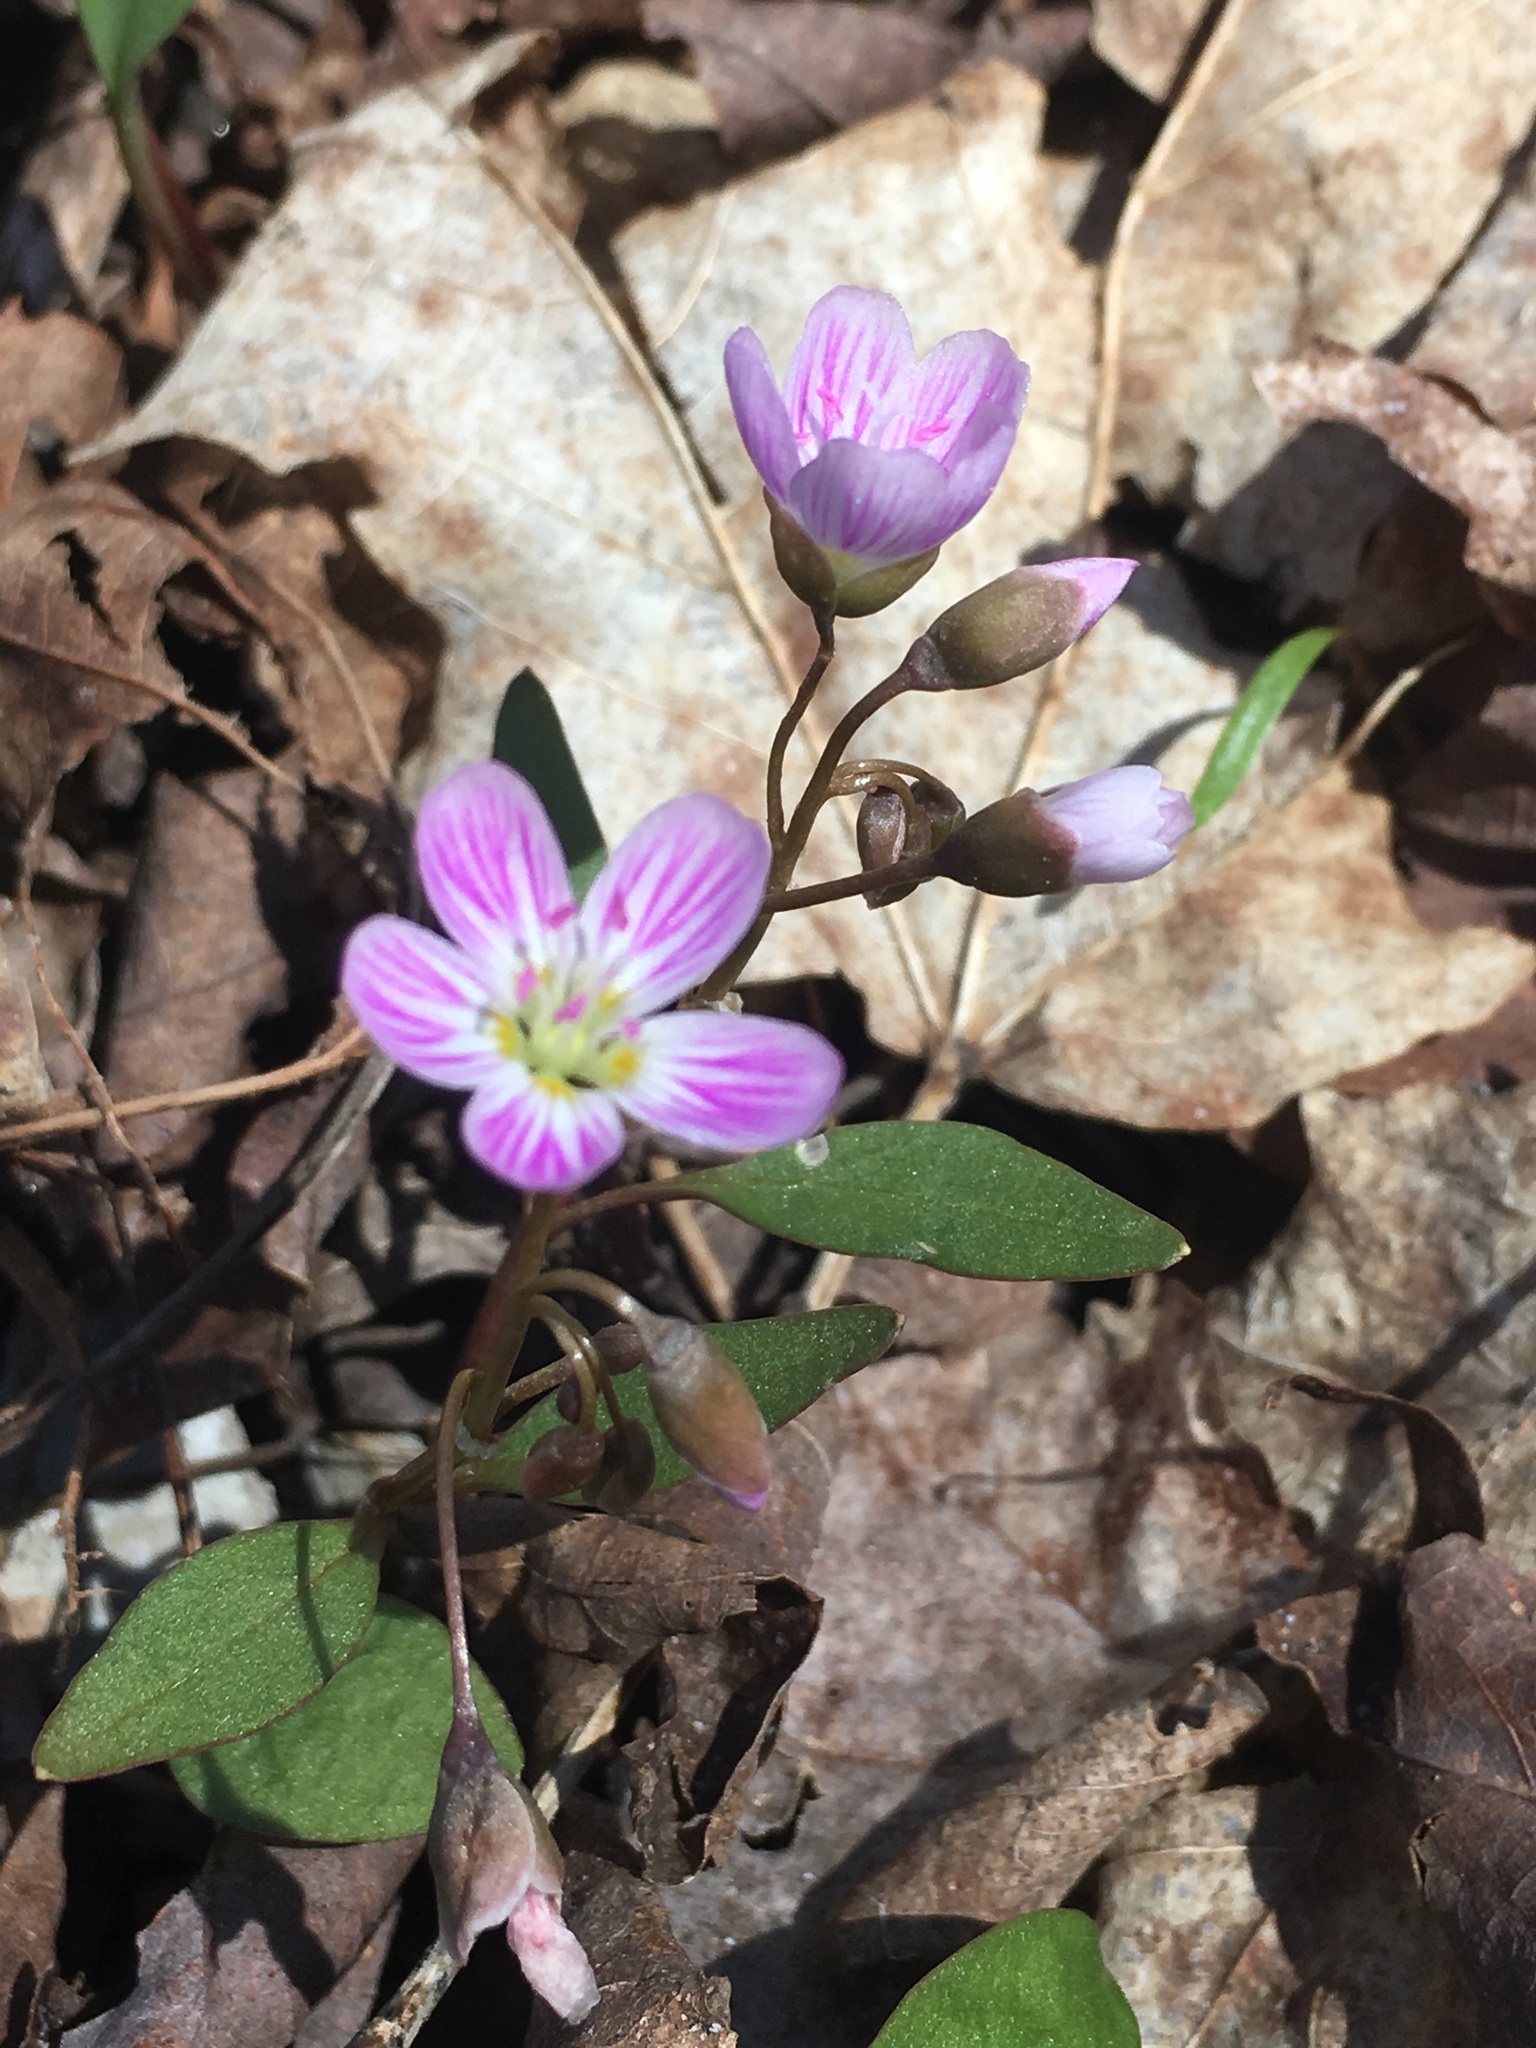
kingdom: Plantae
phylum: Tracheophyta
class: Magnoliopsida
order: Caryophyllales
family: Montiaceae
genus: Claytonia
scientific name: Claytonia caroliniana
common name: Carolina spring beauty
